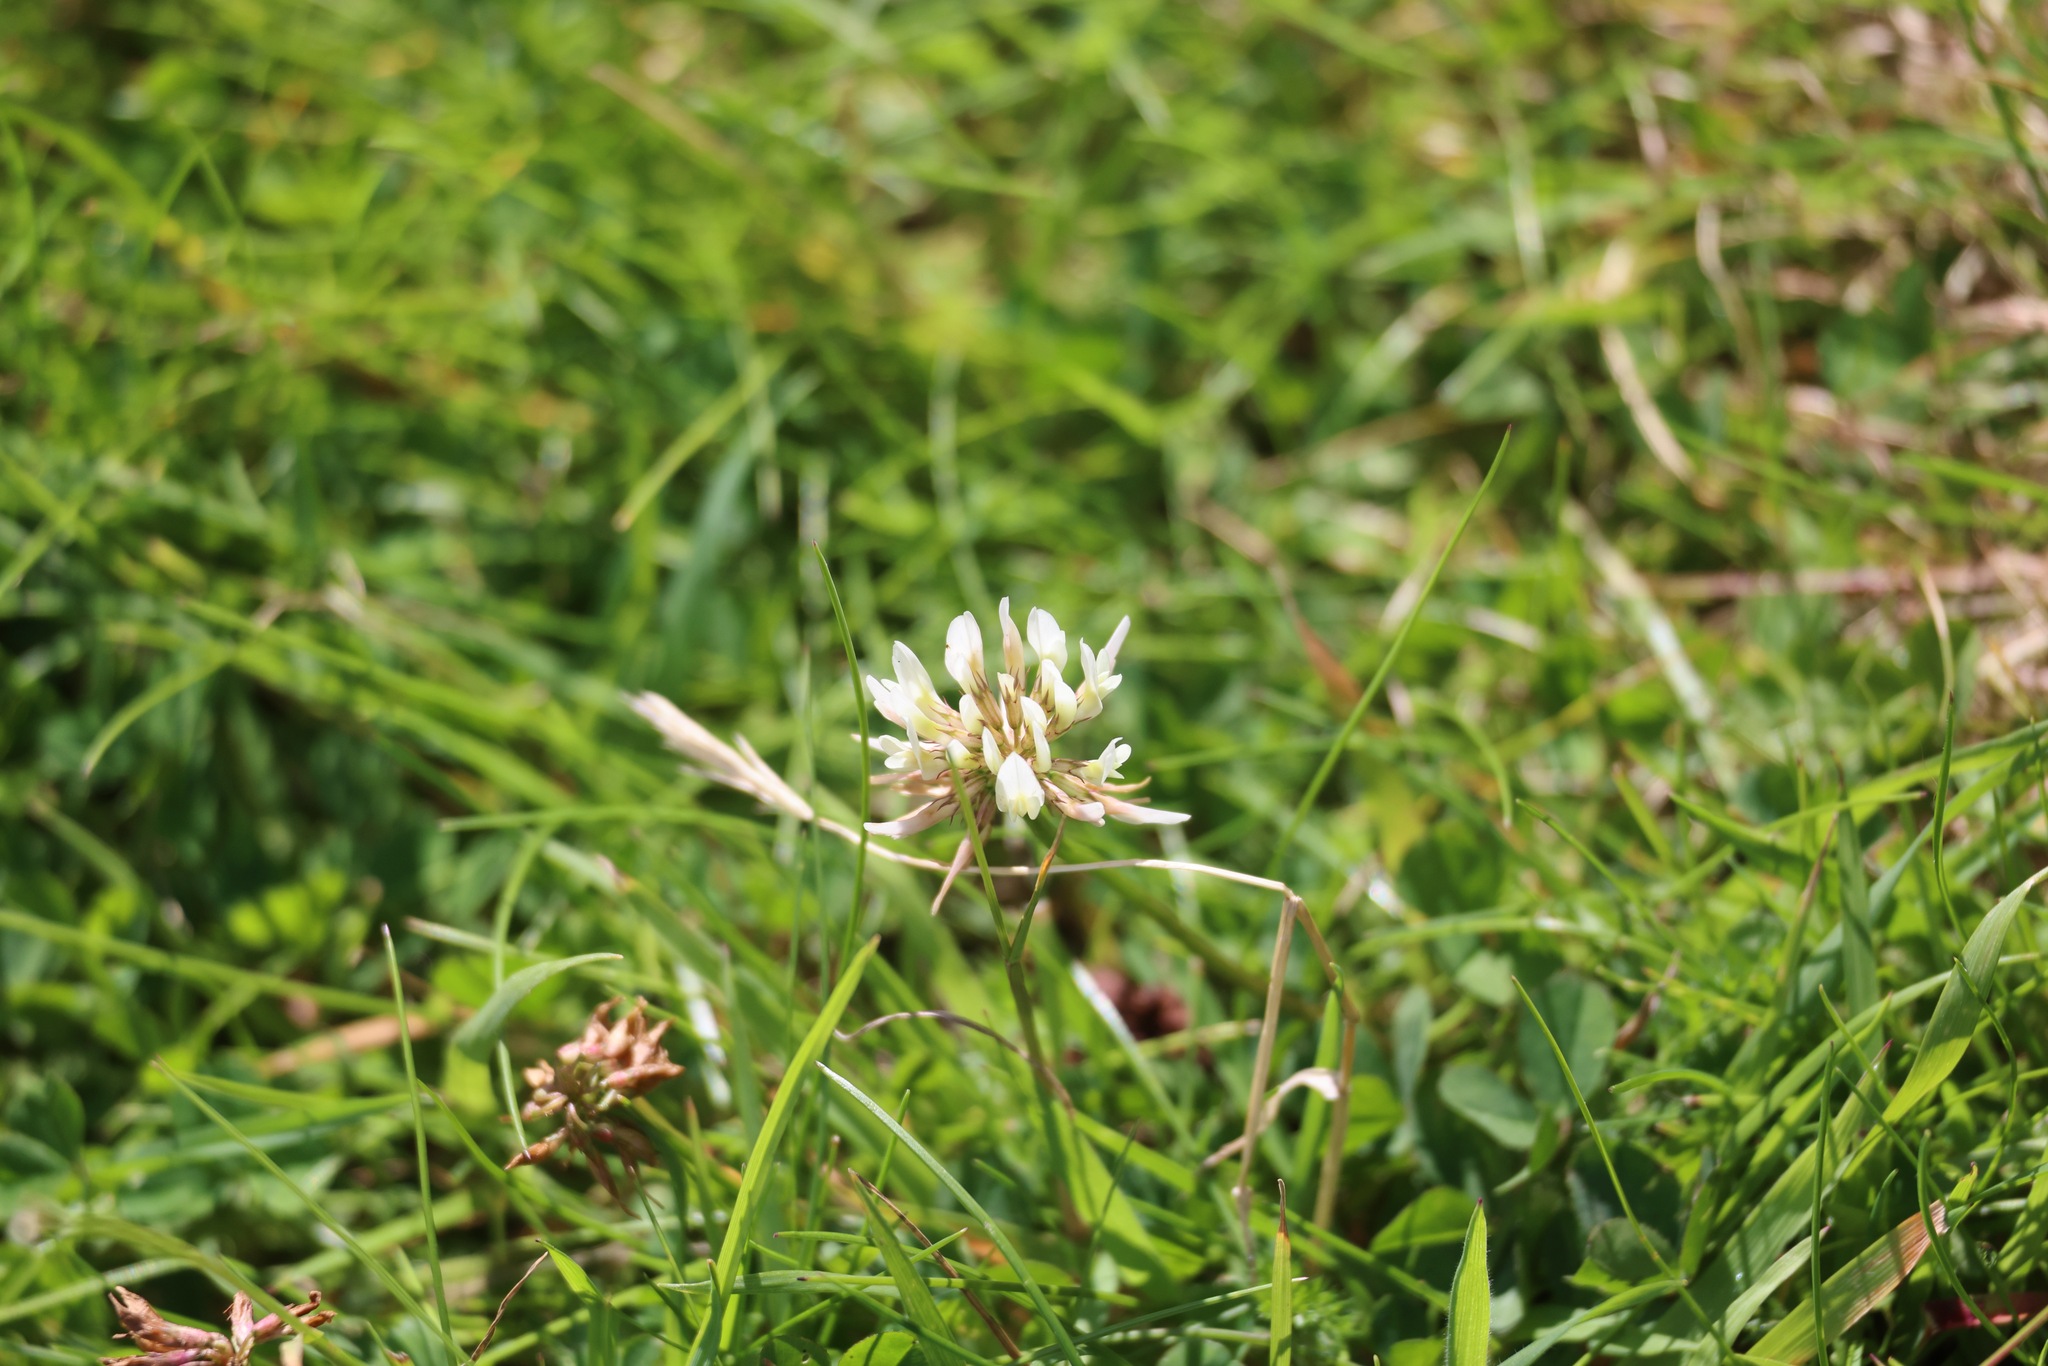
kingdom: Plantae
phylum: Tracheophyta
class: Magnoliopsida
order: Fabales
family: Fabaceae
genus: Trifolium
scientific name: Trifolium repens
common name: White clover
